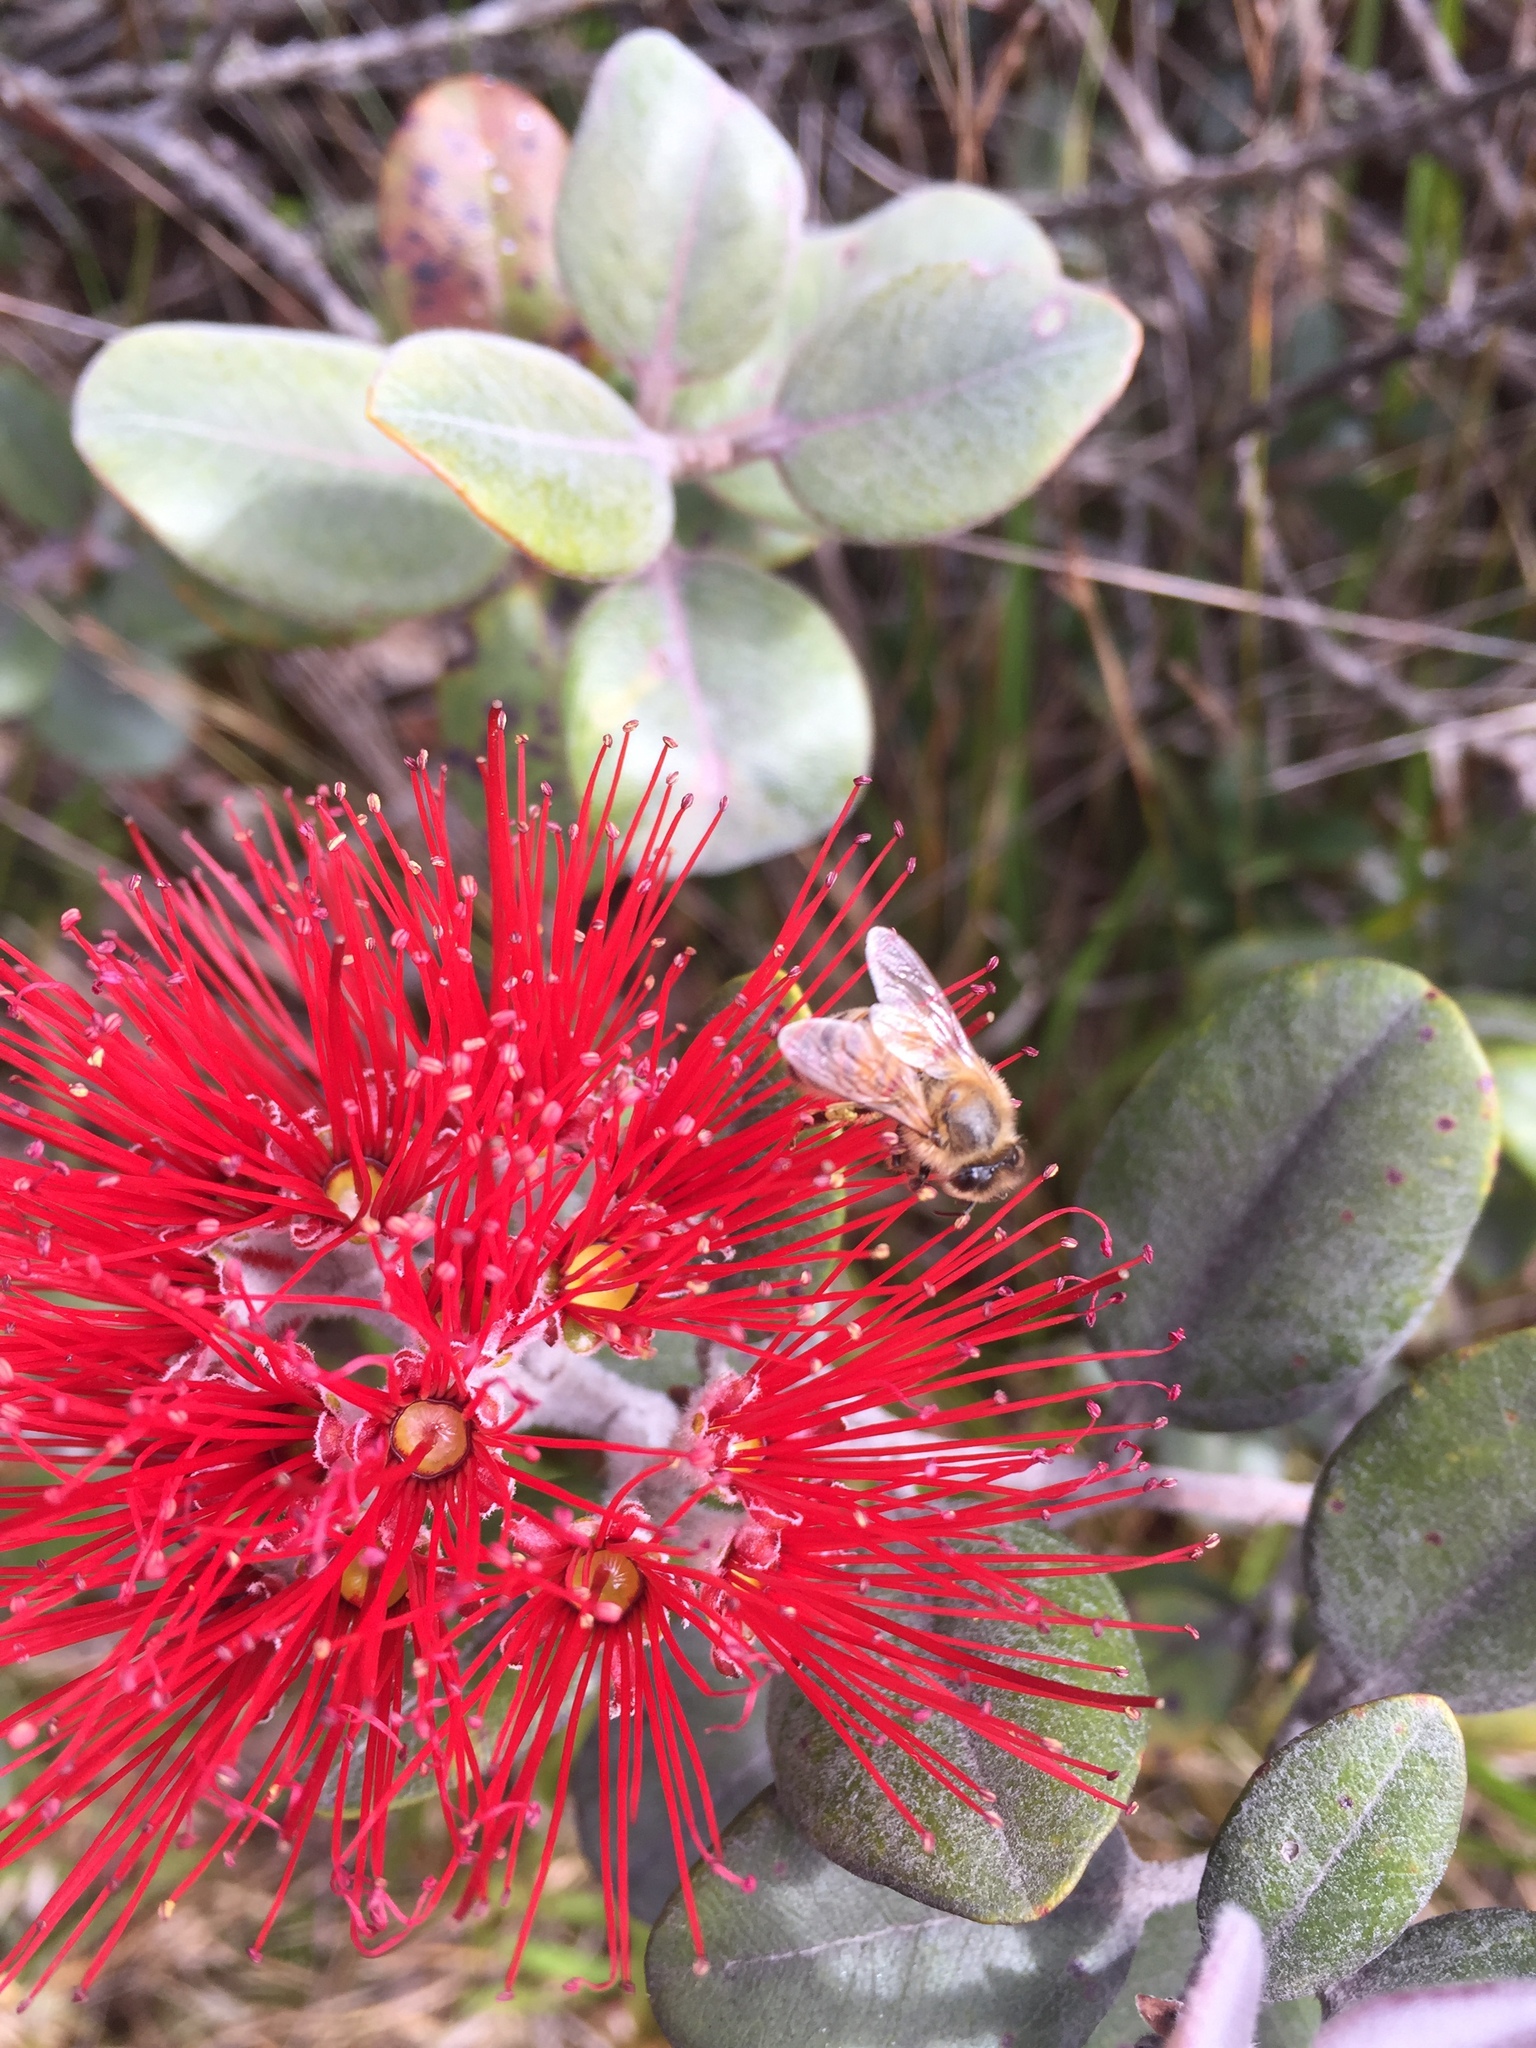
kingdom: Animalia
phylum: Arthropoda
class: Insecta
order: Hymenoptera
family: Apidae
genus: Apis
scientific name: Apis mellifera
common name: Honey bee
